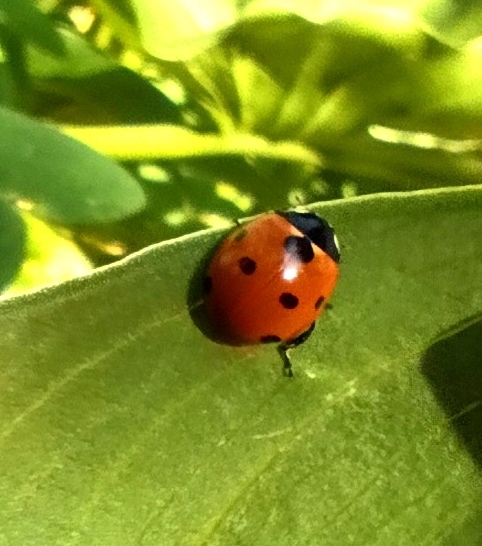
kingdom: Animalia
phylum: Arthropoda
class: Insecta
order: Coleoptera
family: Coccinellidae
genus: Coccinella
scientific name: Coccinella septempunctata
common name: Sevenspotted lady beetle
